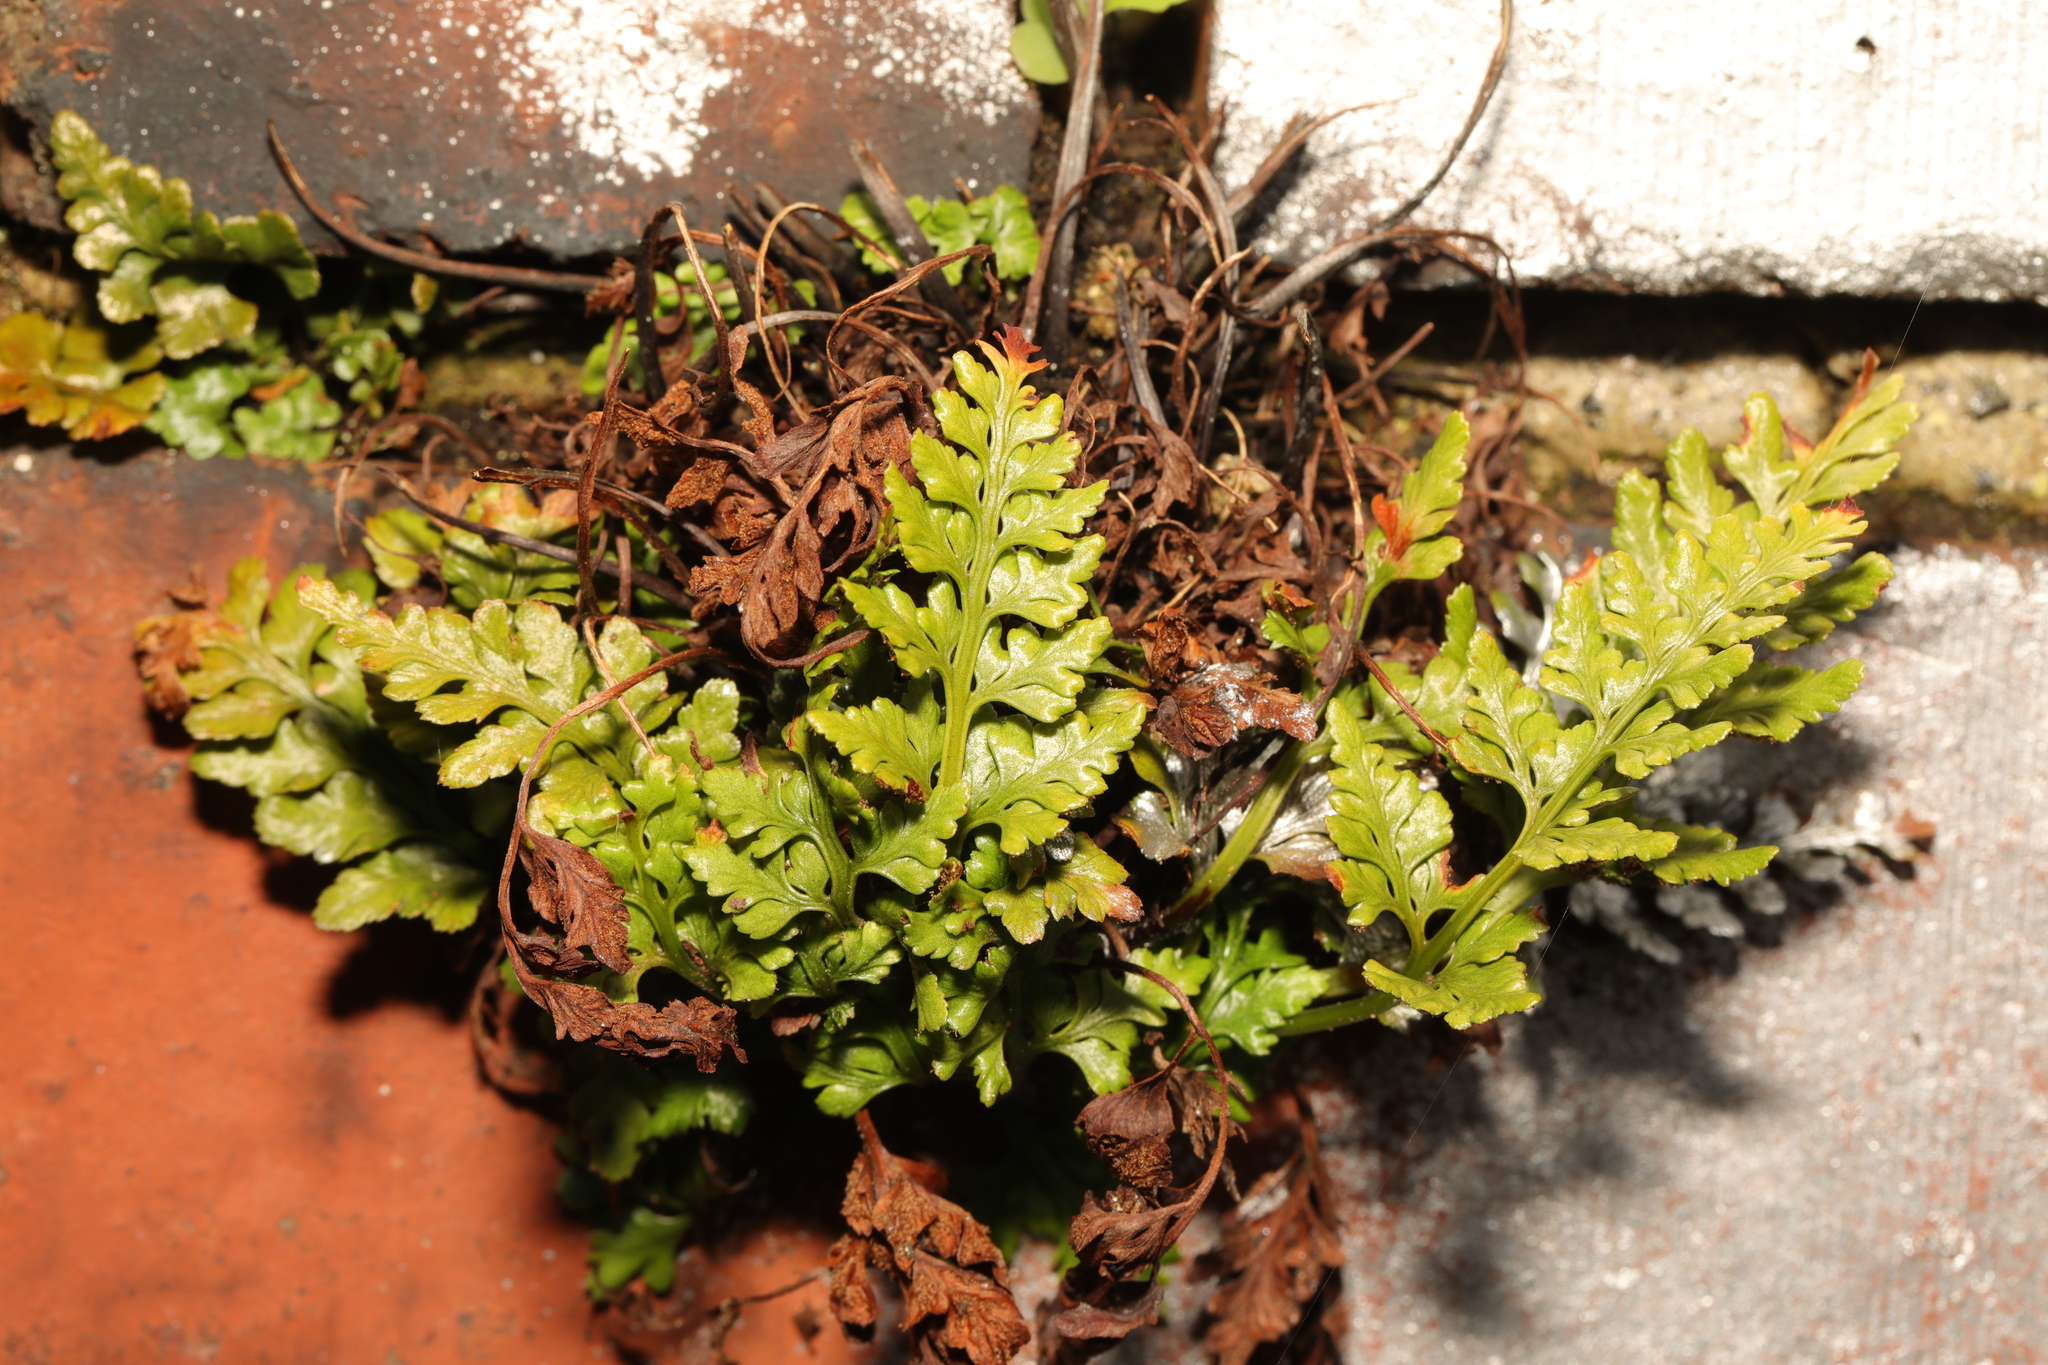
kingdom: Plantae
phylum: Tracheophyta
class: Polypodiopsida
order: Polypodiales
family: Aspleniaceae
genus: Asplenium
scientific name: Asplenium adiantum-nigrum
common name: Black spleenwort
